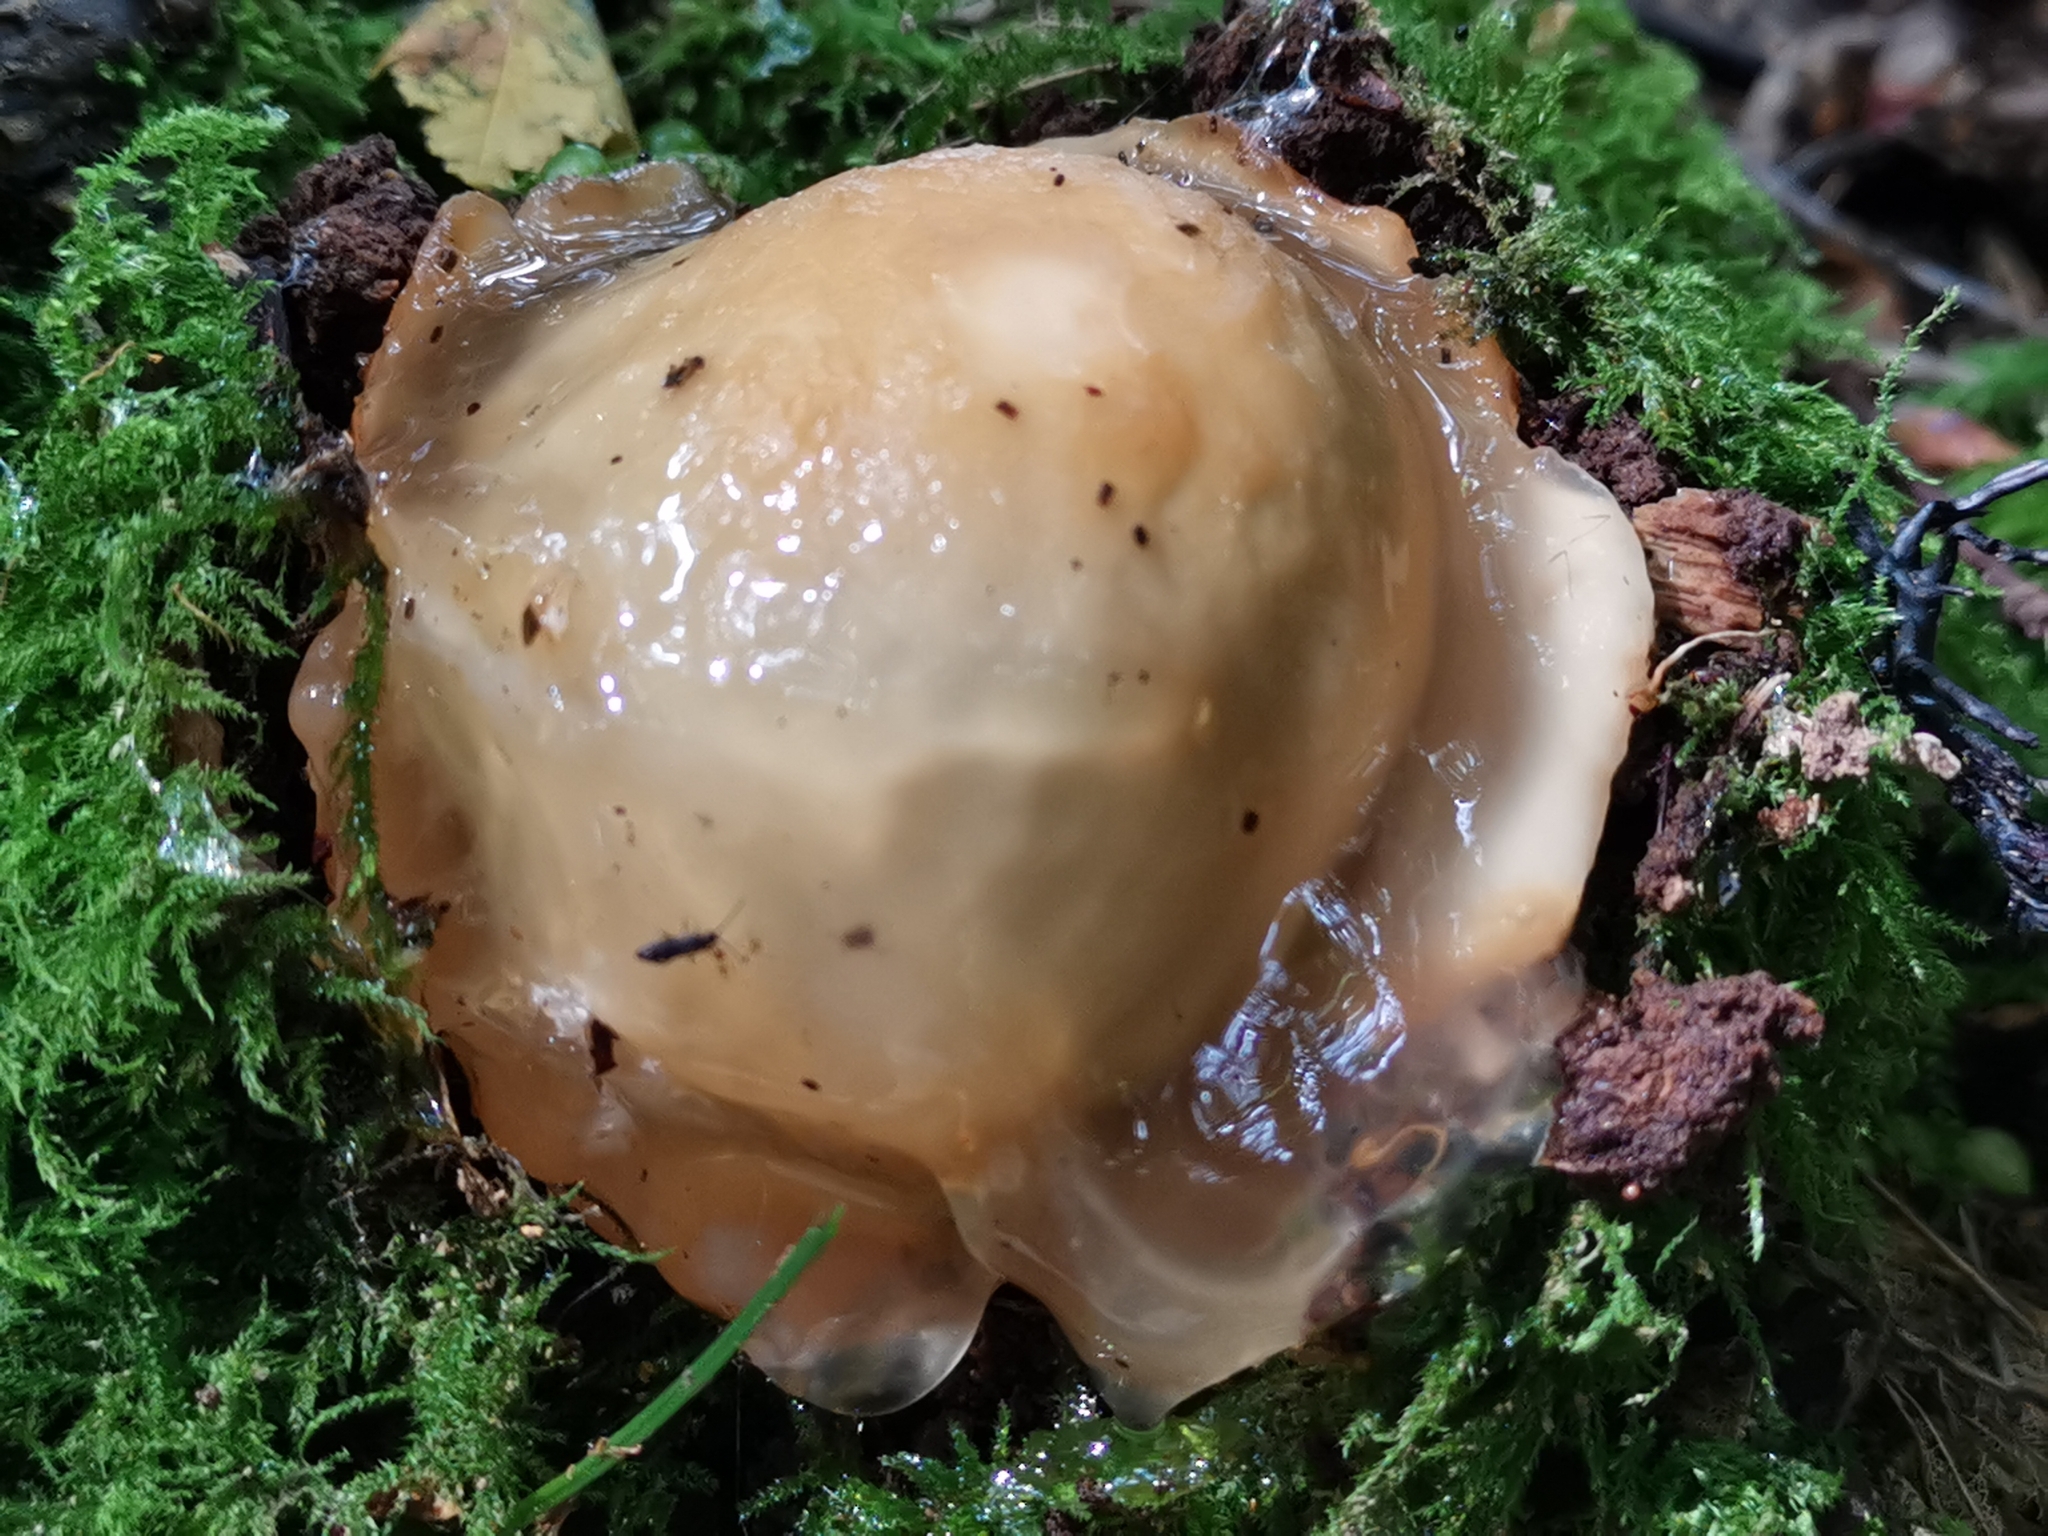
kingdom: Fungi
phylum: Basidiomycota
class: Agaricomycetes
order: Phallales
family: Phallaceae
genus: Phallus
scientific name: Phallus impudicus
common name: Common stinkhorn
